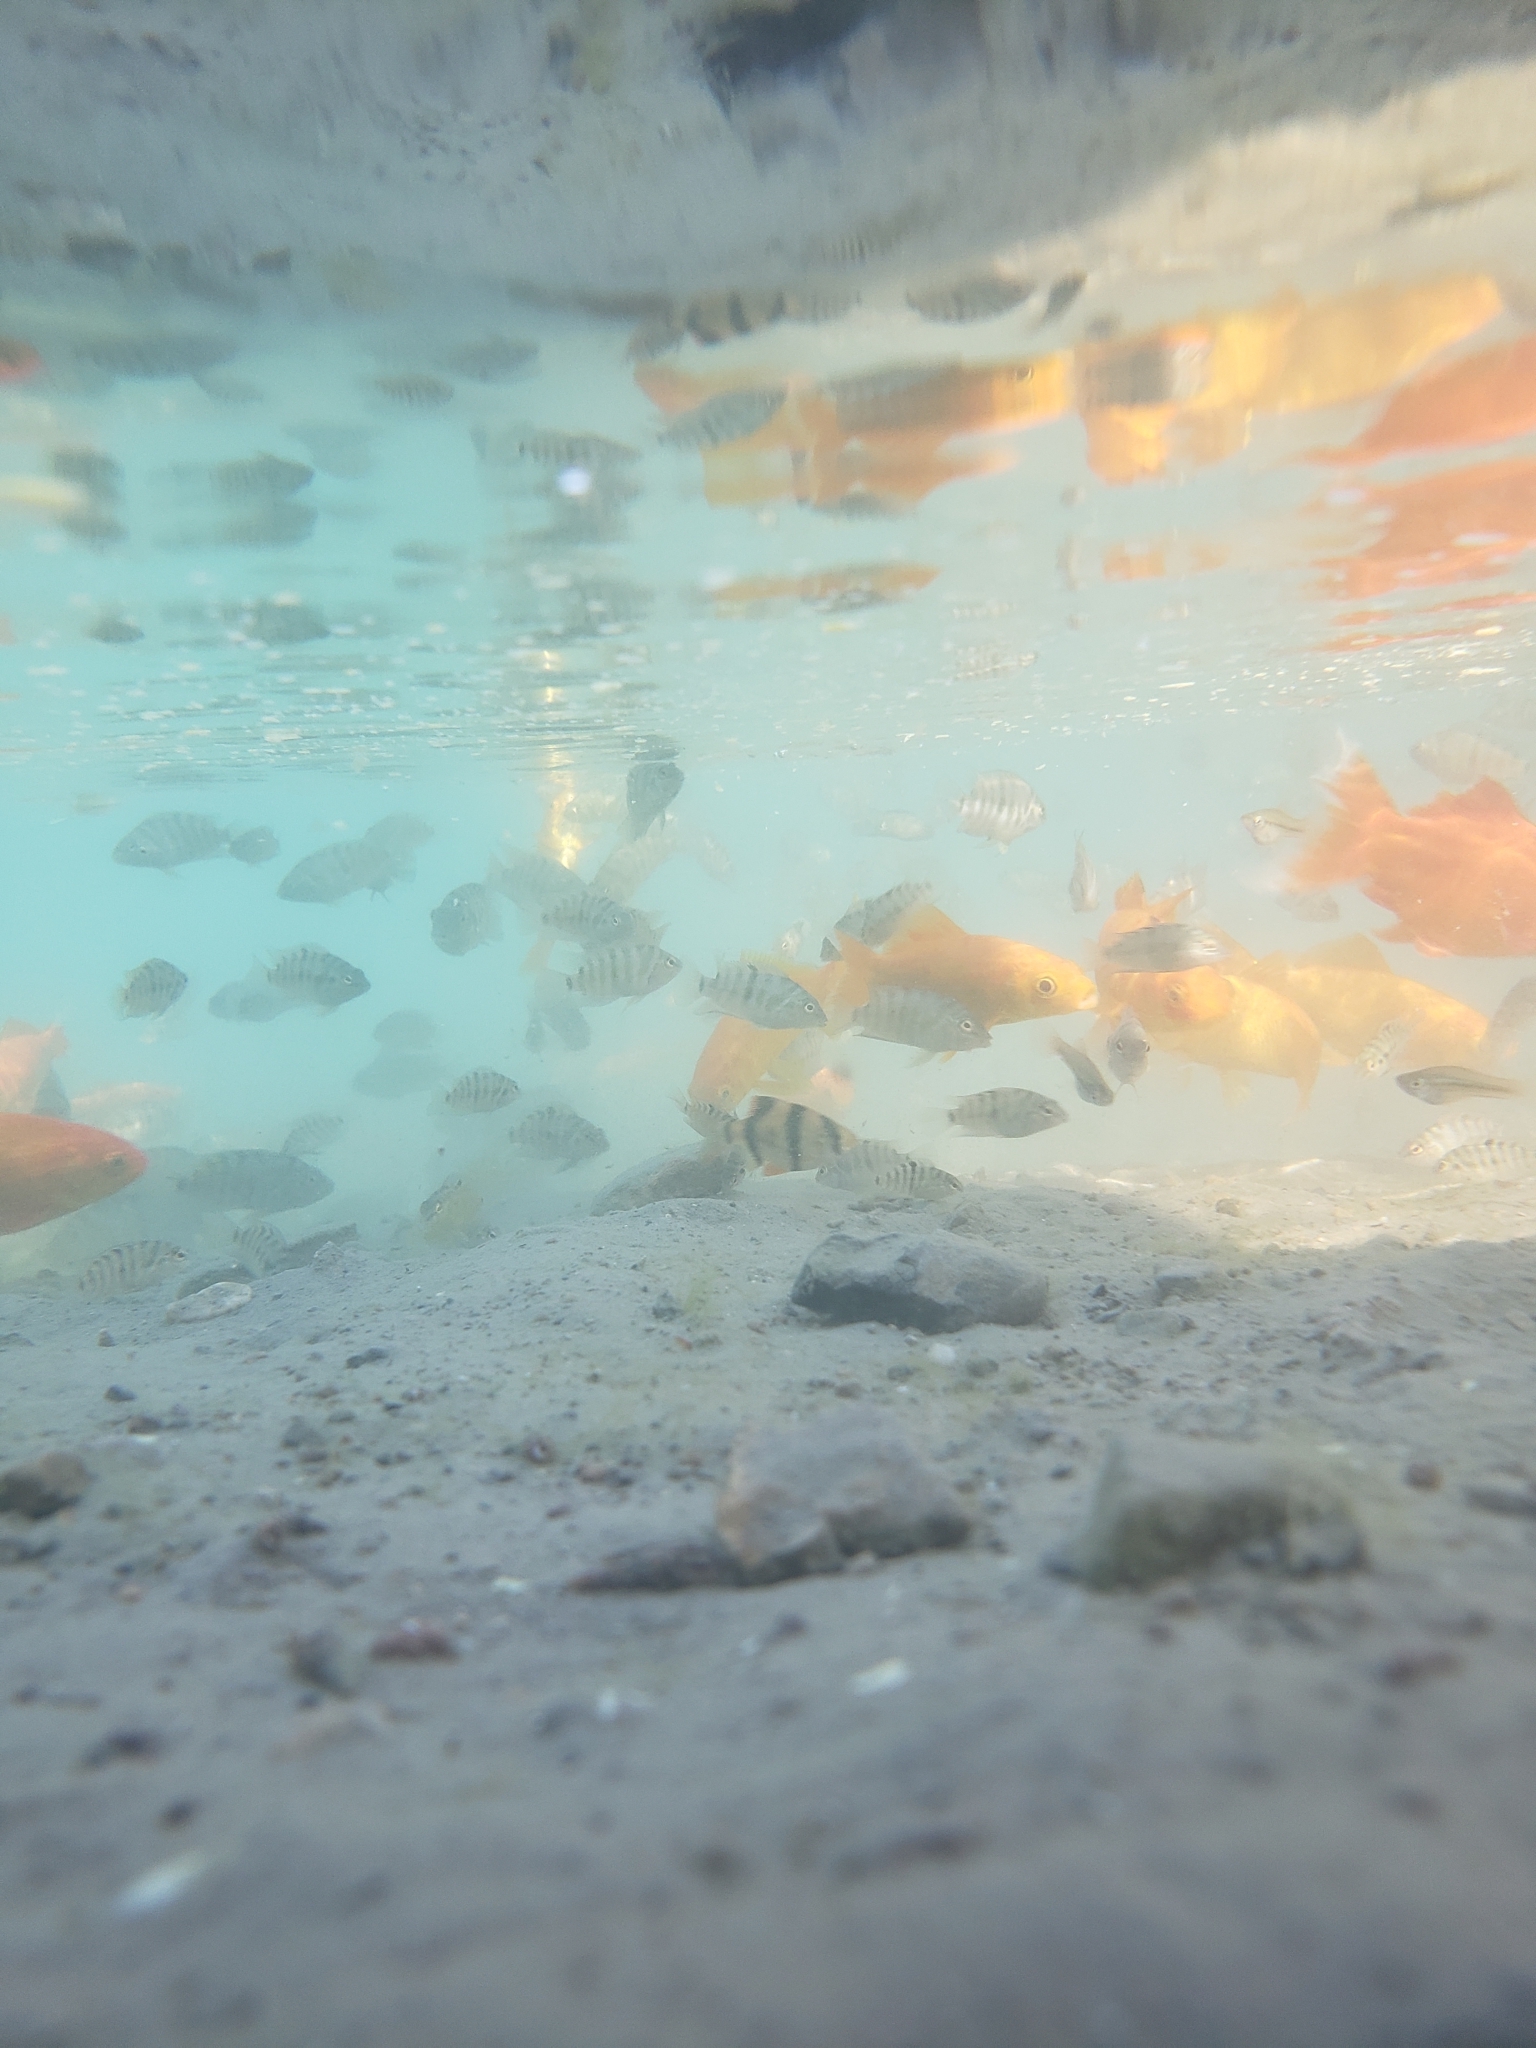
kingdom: Animalia
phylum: Chordata
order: Cypriniformes
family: Cyprinidae
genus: Puntigrus
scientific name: Puntigrus tetrazona
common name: Tiger barb
